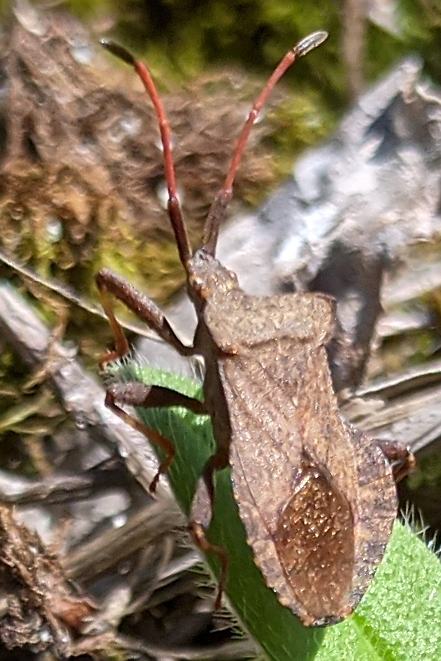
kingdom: Animalia
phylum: Arthropoda
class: Insecta
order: Hemiptera
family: Coreidae
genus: Coreus
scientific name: Coreus marginatus
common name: Dock bug
